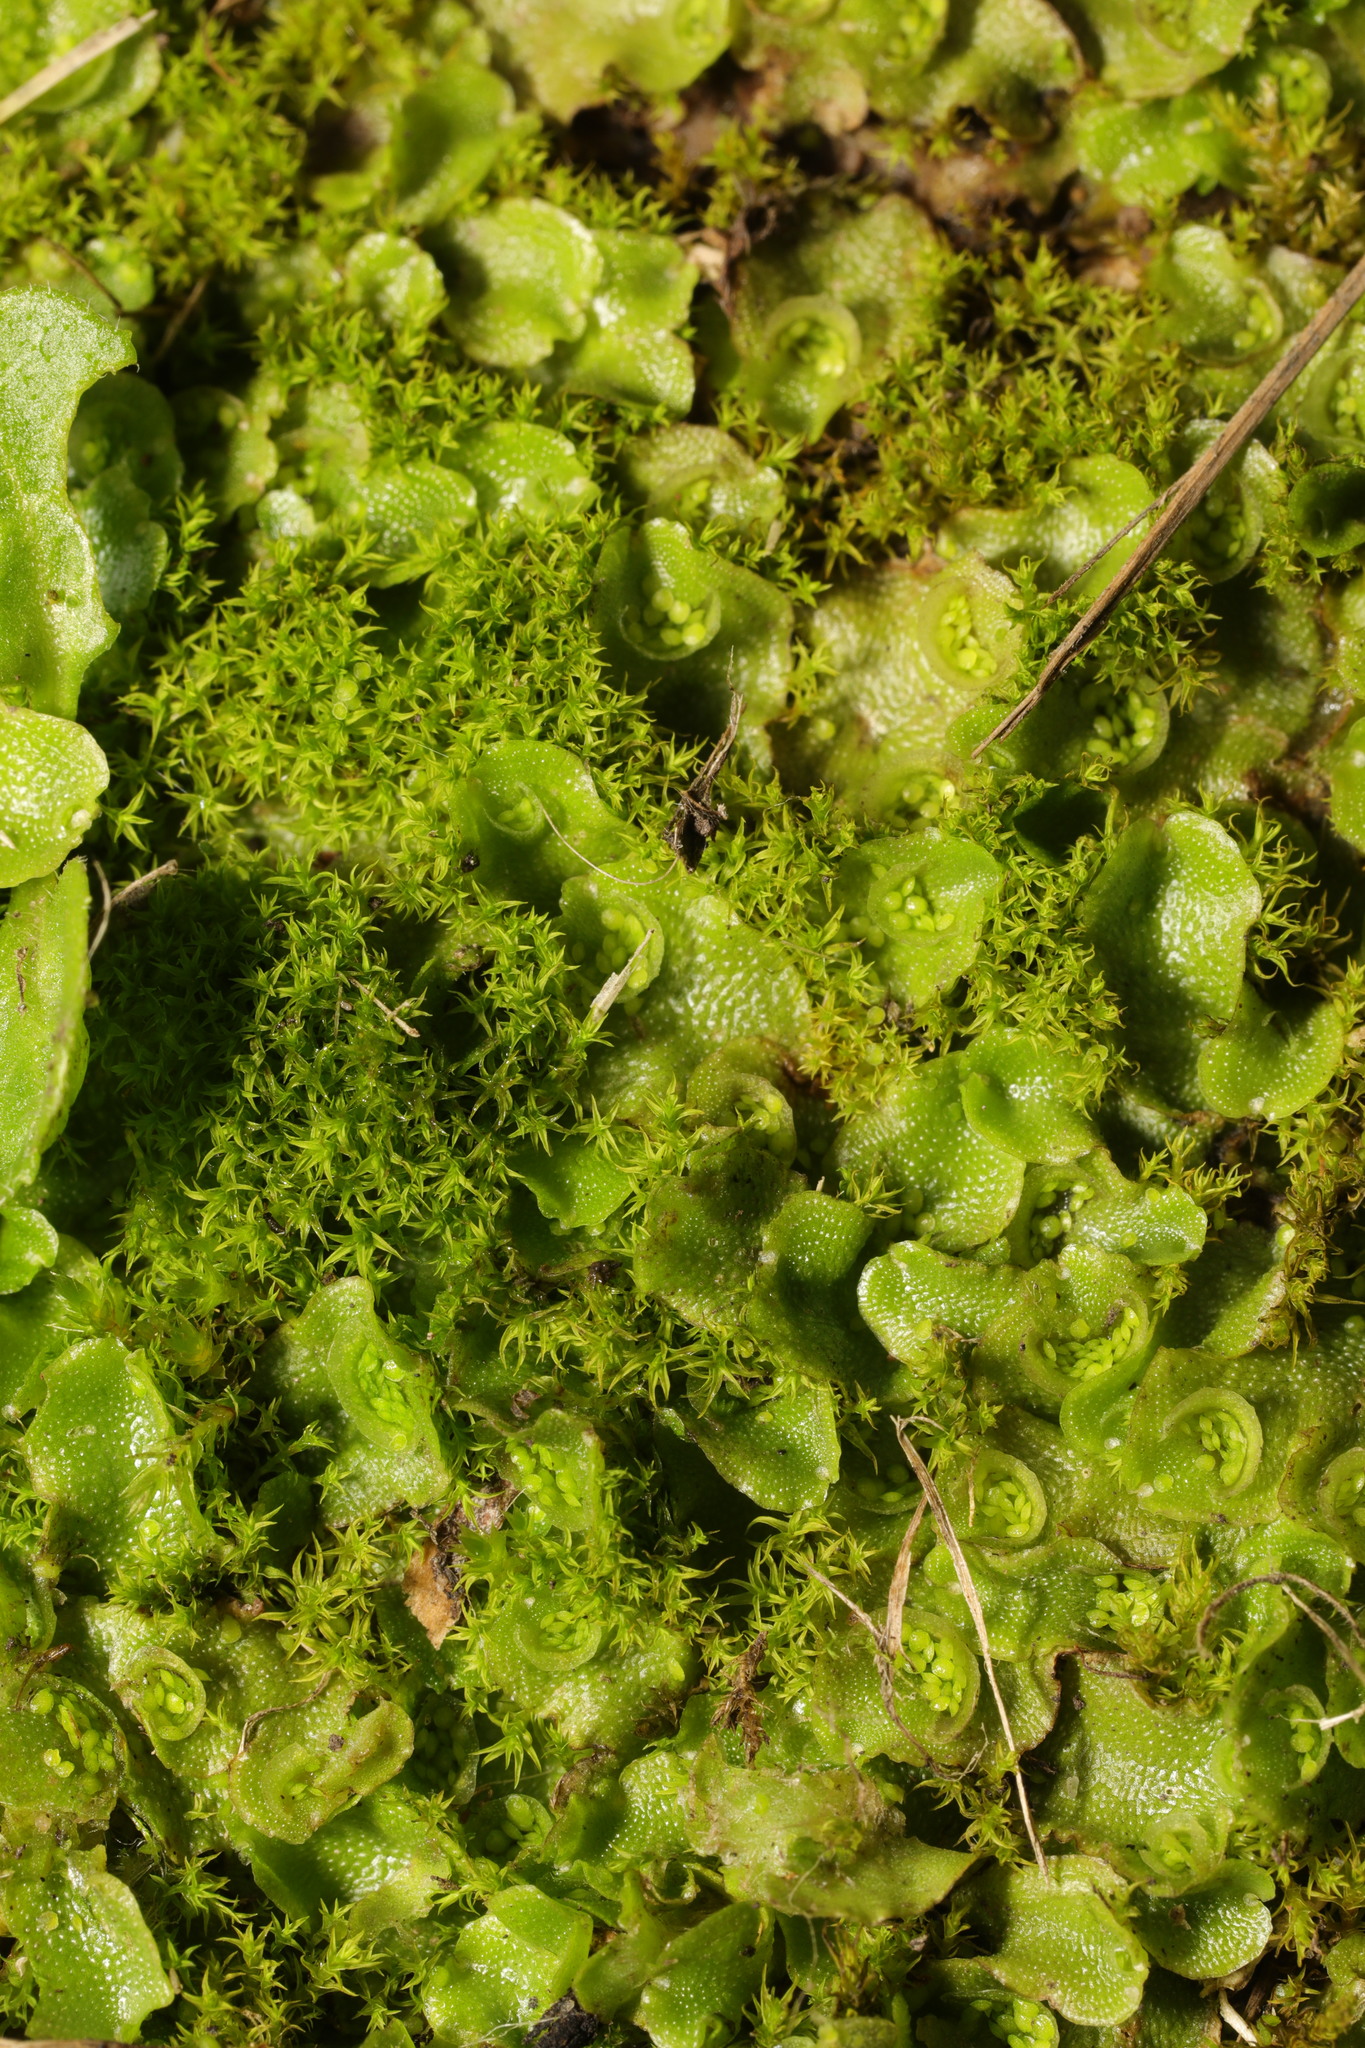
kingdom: Plantae
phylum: Marchantiophyta
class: Marchantiopsida
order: Lunulariales
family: Lunulariaceae
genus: Lunularia
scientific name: Lunularia cruciata
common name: Crescent-cup liverwort
